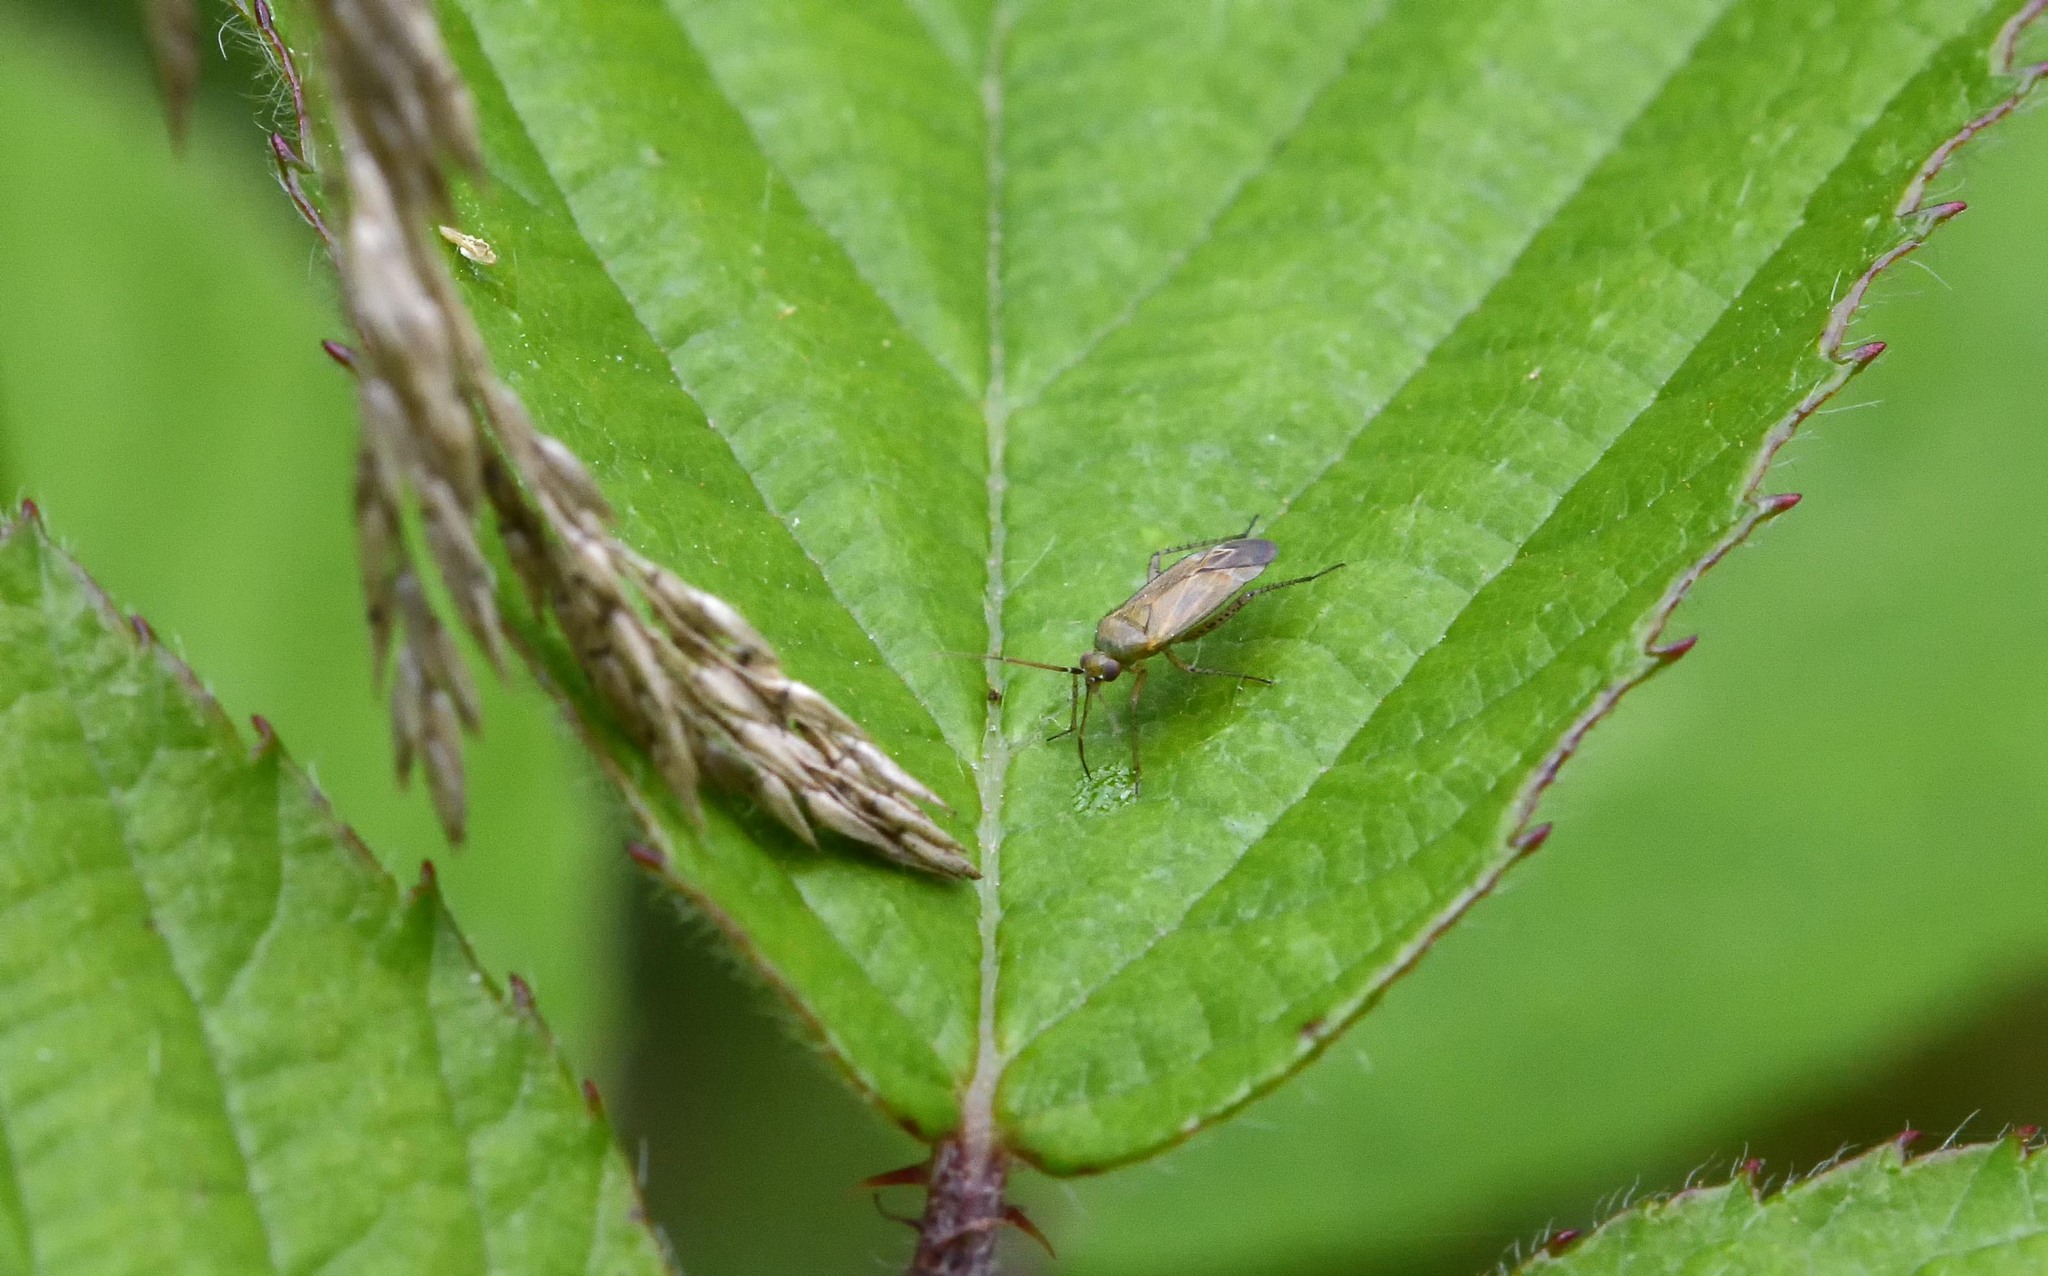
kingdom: Animalia
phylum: Arthropoda
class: Insecta
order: Hemiptera
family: Miridae
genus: Plagiognathus
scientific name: Plagiognathus chrysanthemi
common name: Plant bug
